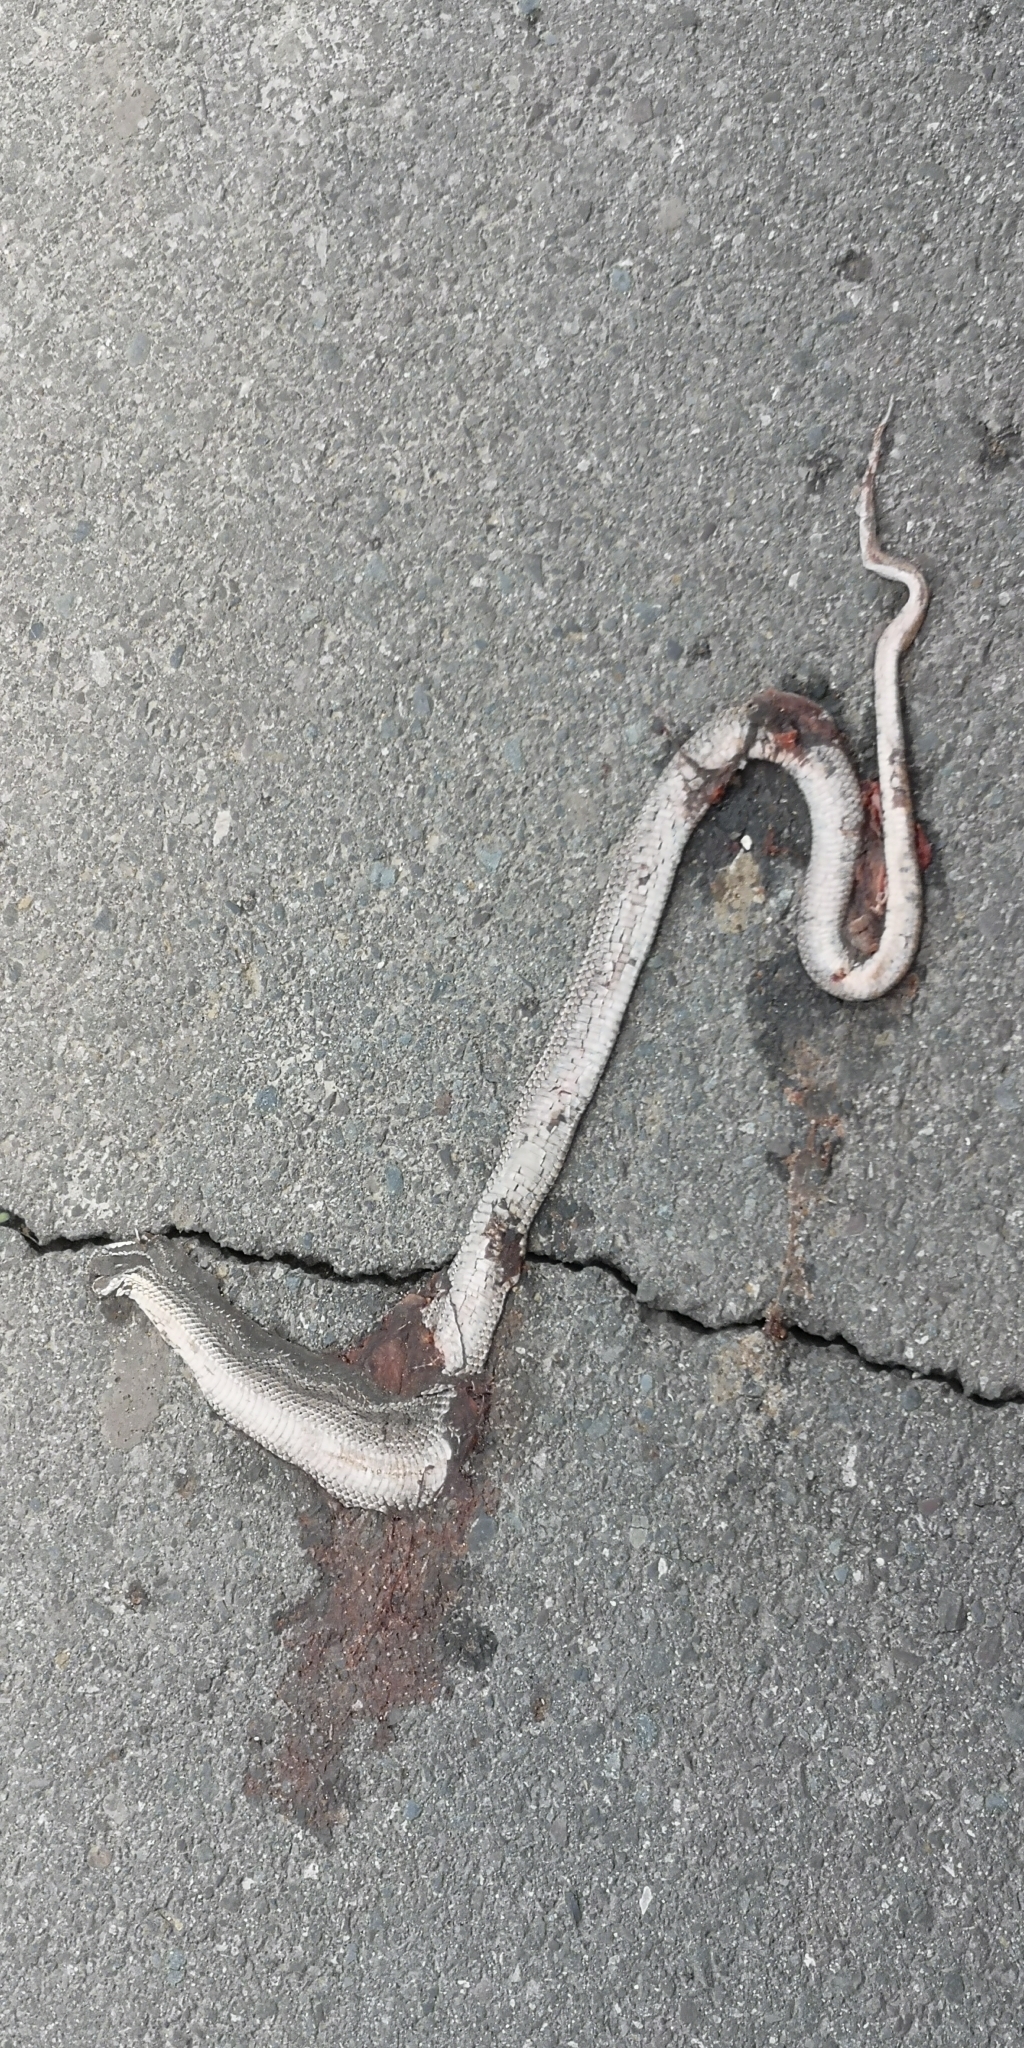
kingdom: Animalia
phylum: Chordata
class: Squamata
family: Colubridae
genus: Philodryas
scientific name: Philodryas chamissonis
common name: Chilean green racer
